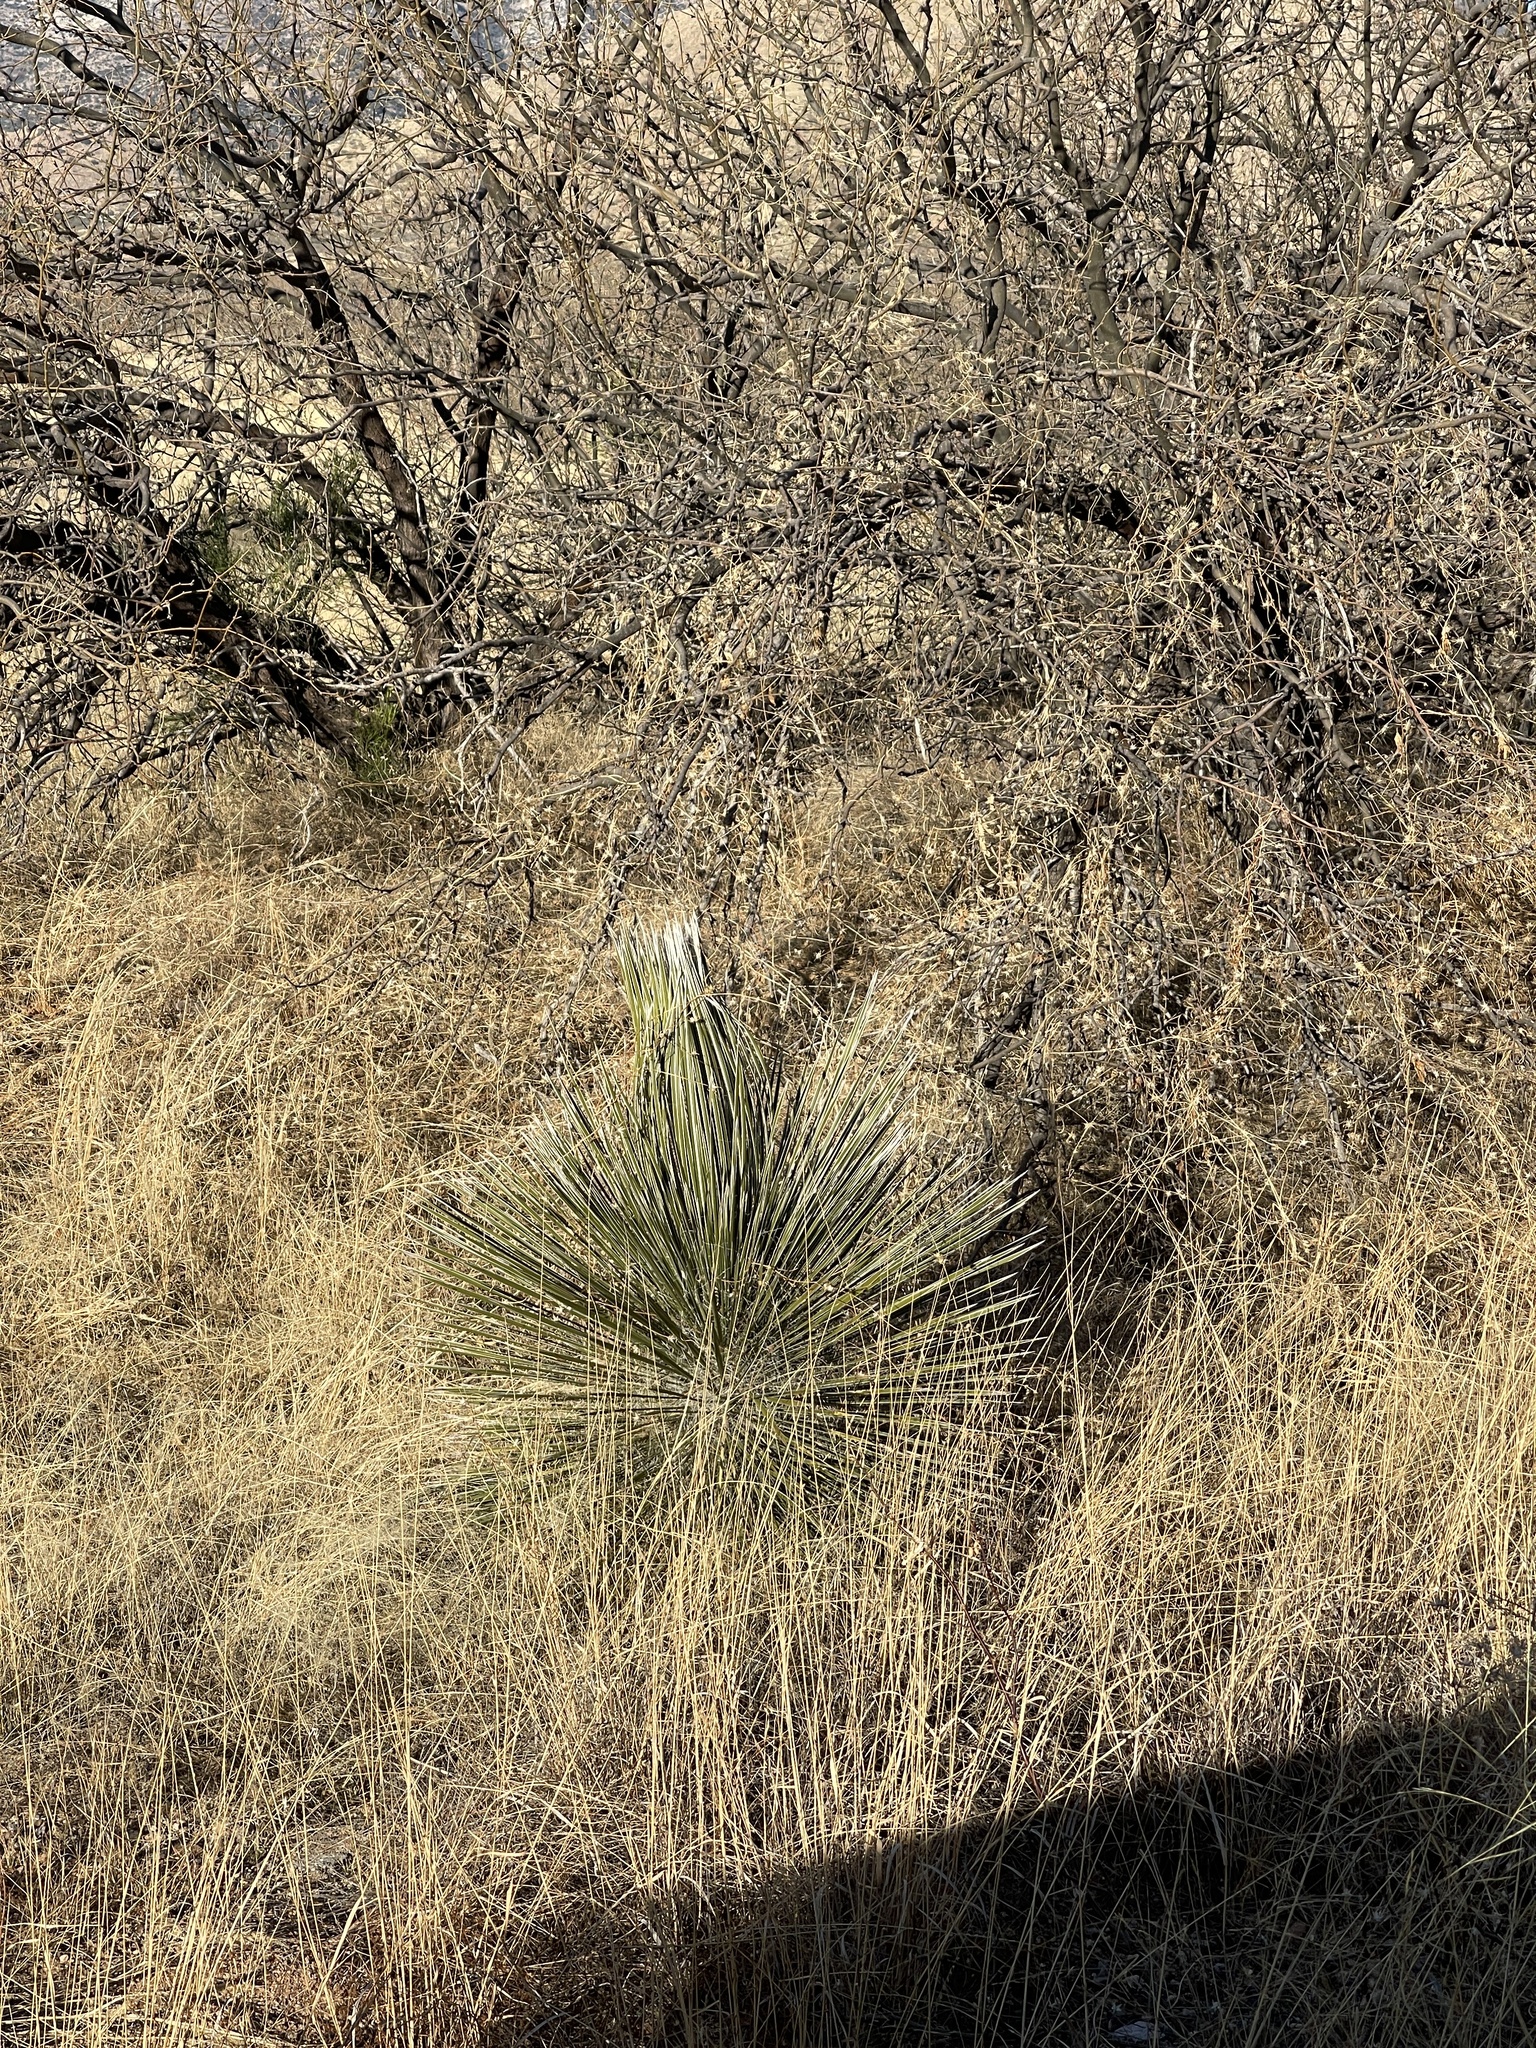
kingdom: Plantae
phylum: Tracheophyta
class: Liliopsida
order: Asparagales
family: Asparagaceae
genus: Yucca
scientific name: Yucca elata
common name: Palmella
